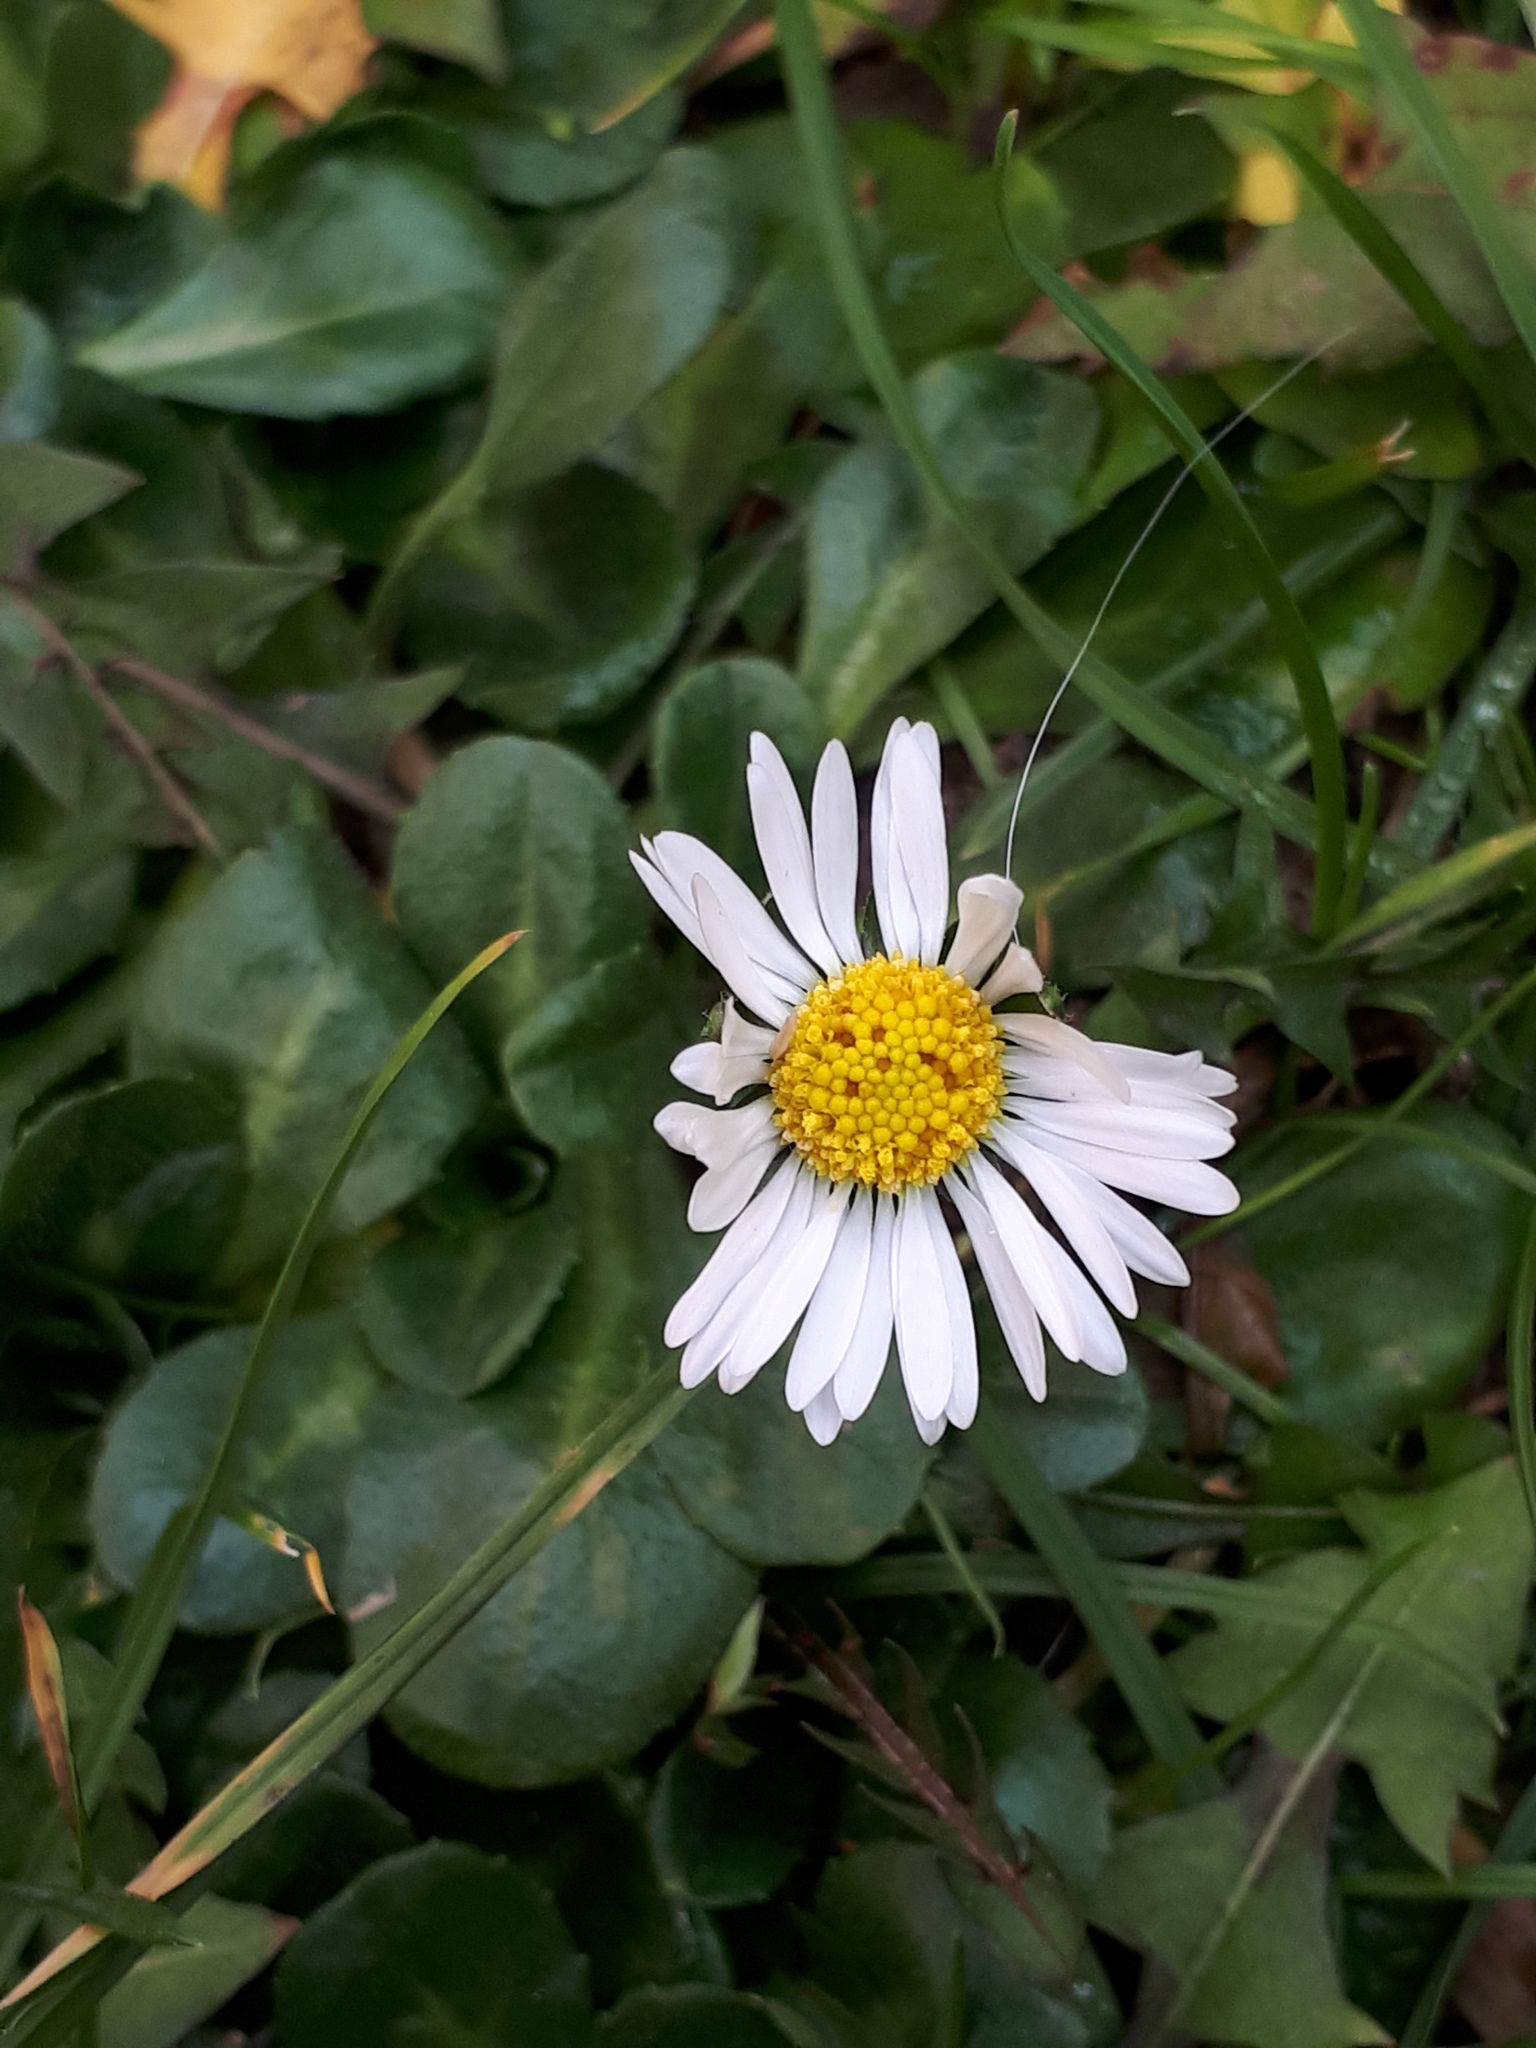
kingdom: Plantae
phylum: Tracheophyta
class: Magnoliopsida
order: Asterales
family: Asteraceae
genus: Bellis
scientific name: Bellis perennis
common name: Lawndaisy
